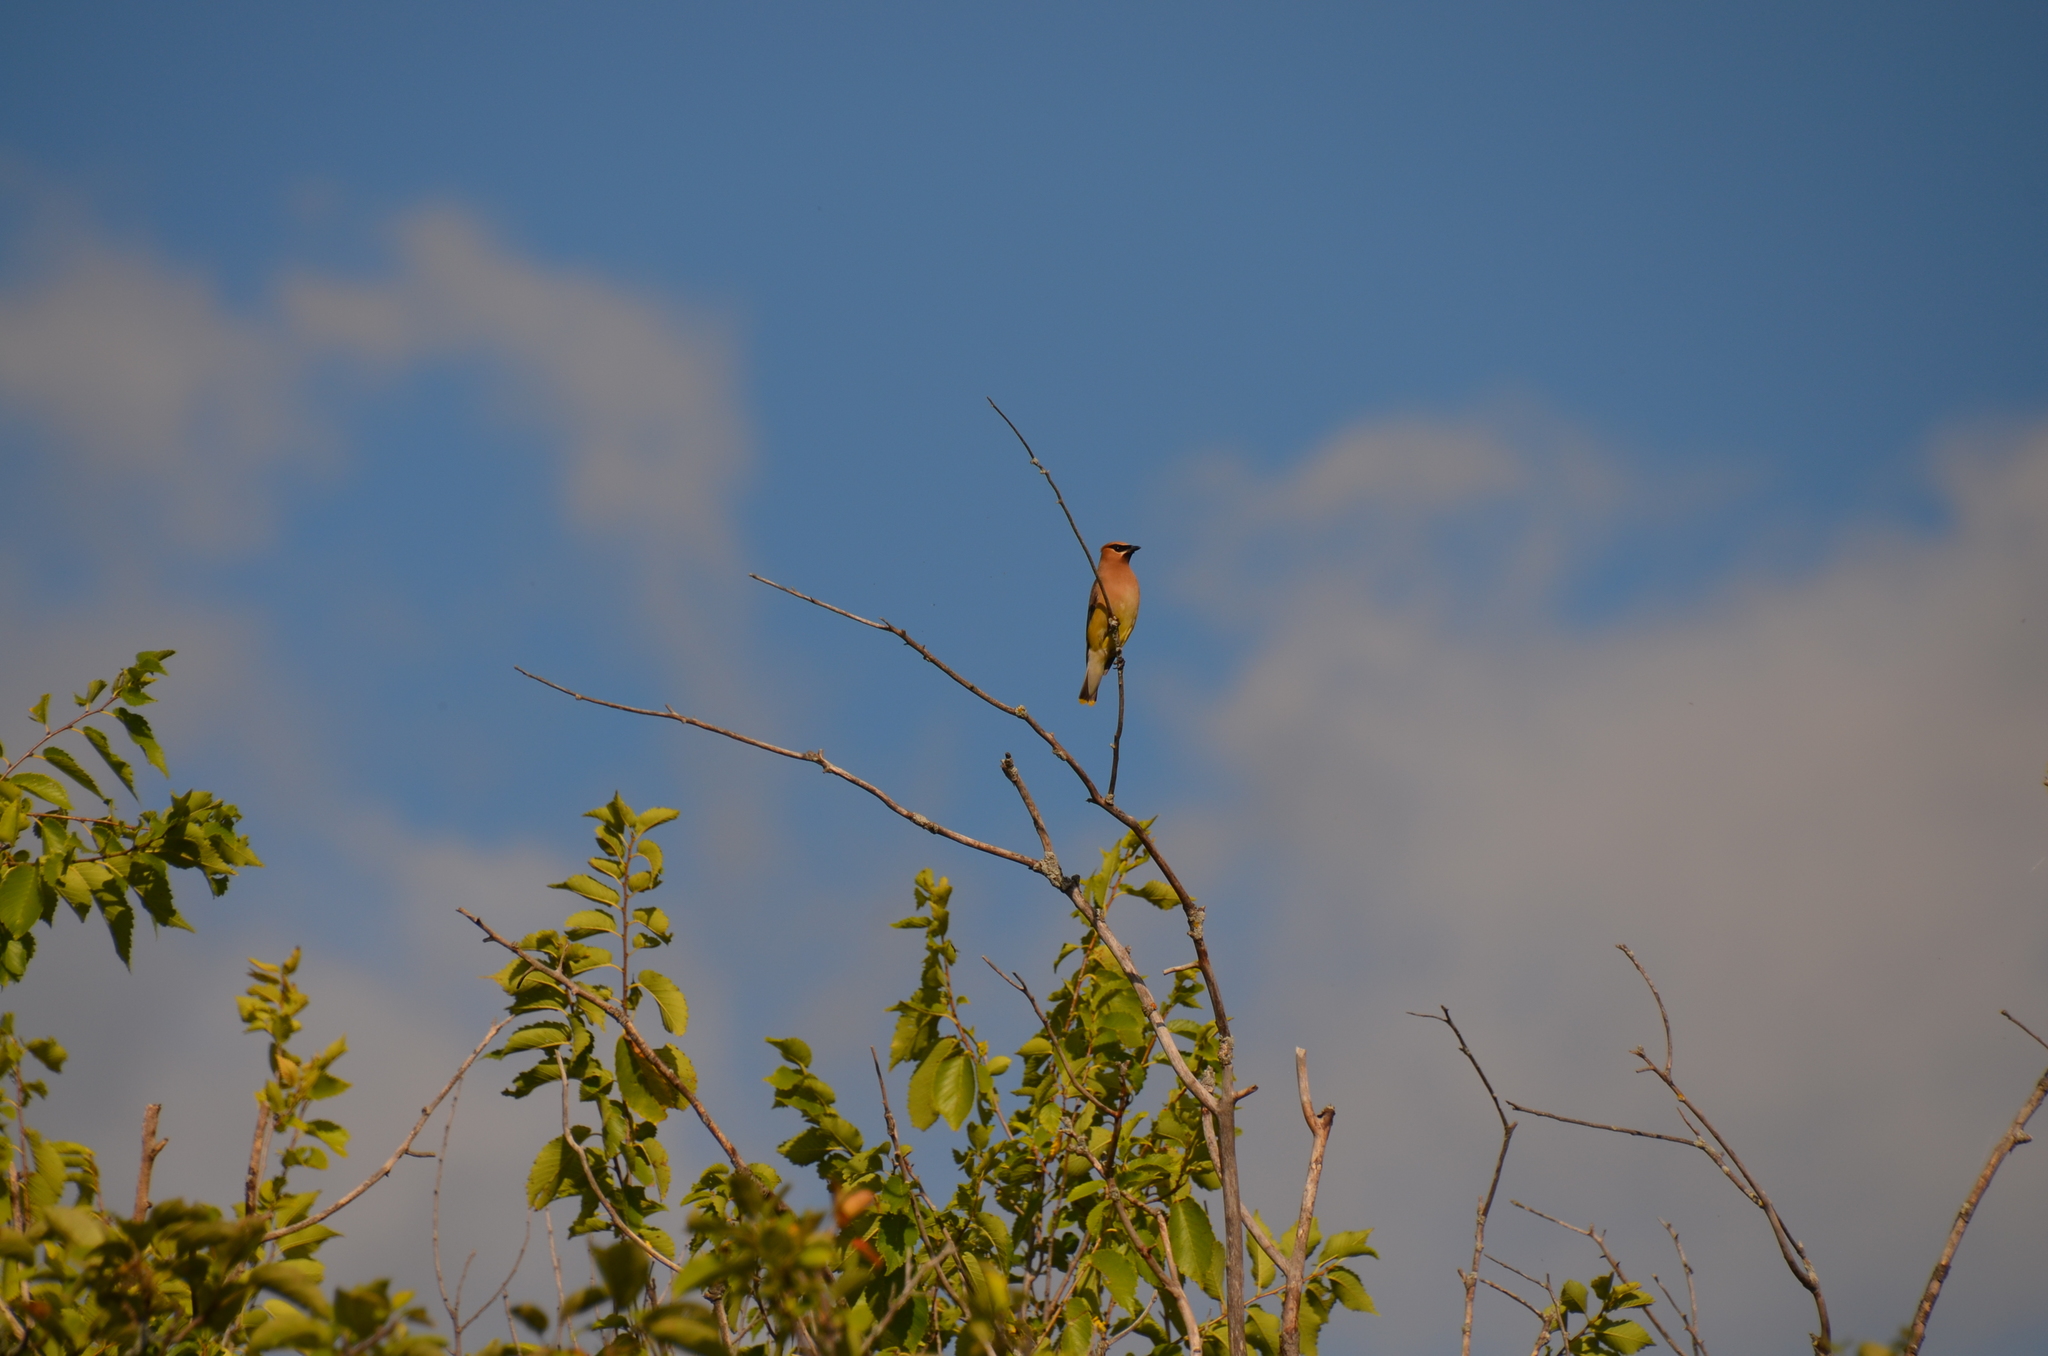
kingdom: Animalia
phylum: Chordata
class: Aves
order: Passeriformes
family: Bombycillidae
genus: Bombycilla
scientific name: Bombycilla cedrorum
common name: Cedar waxwing
